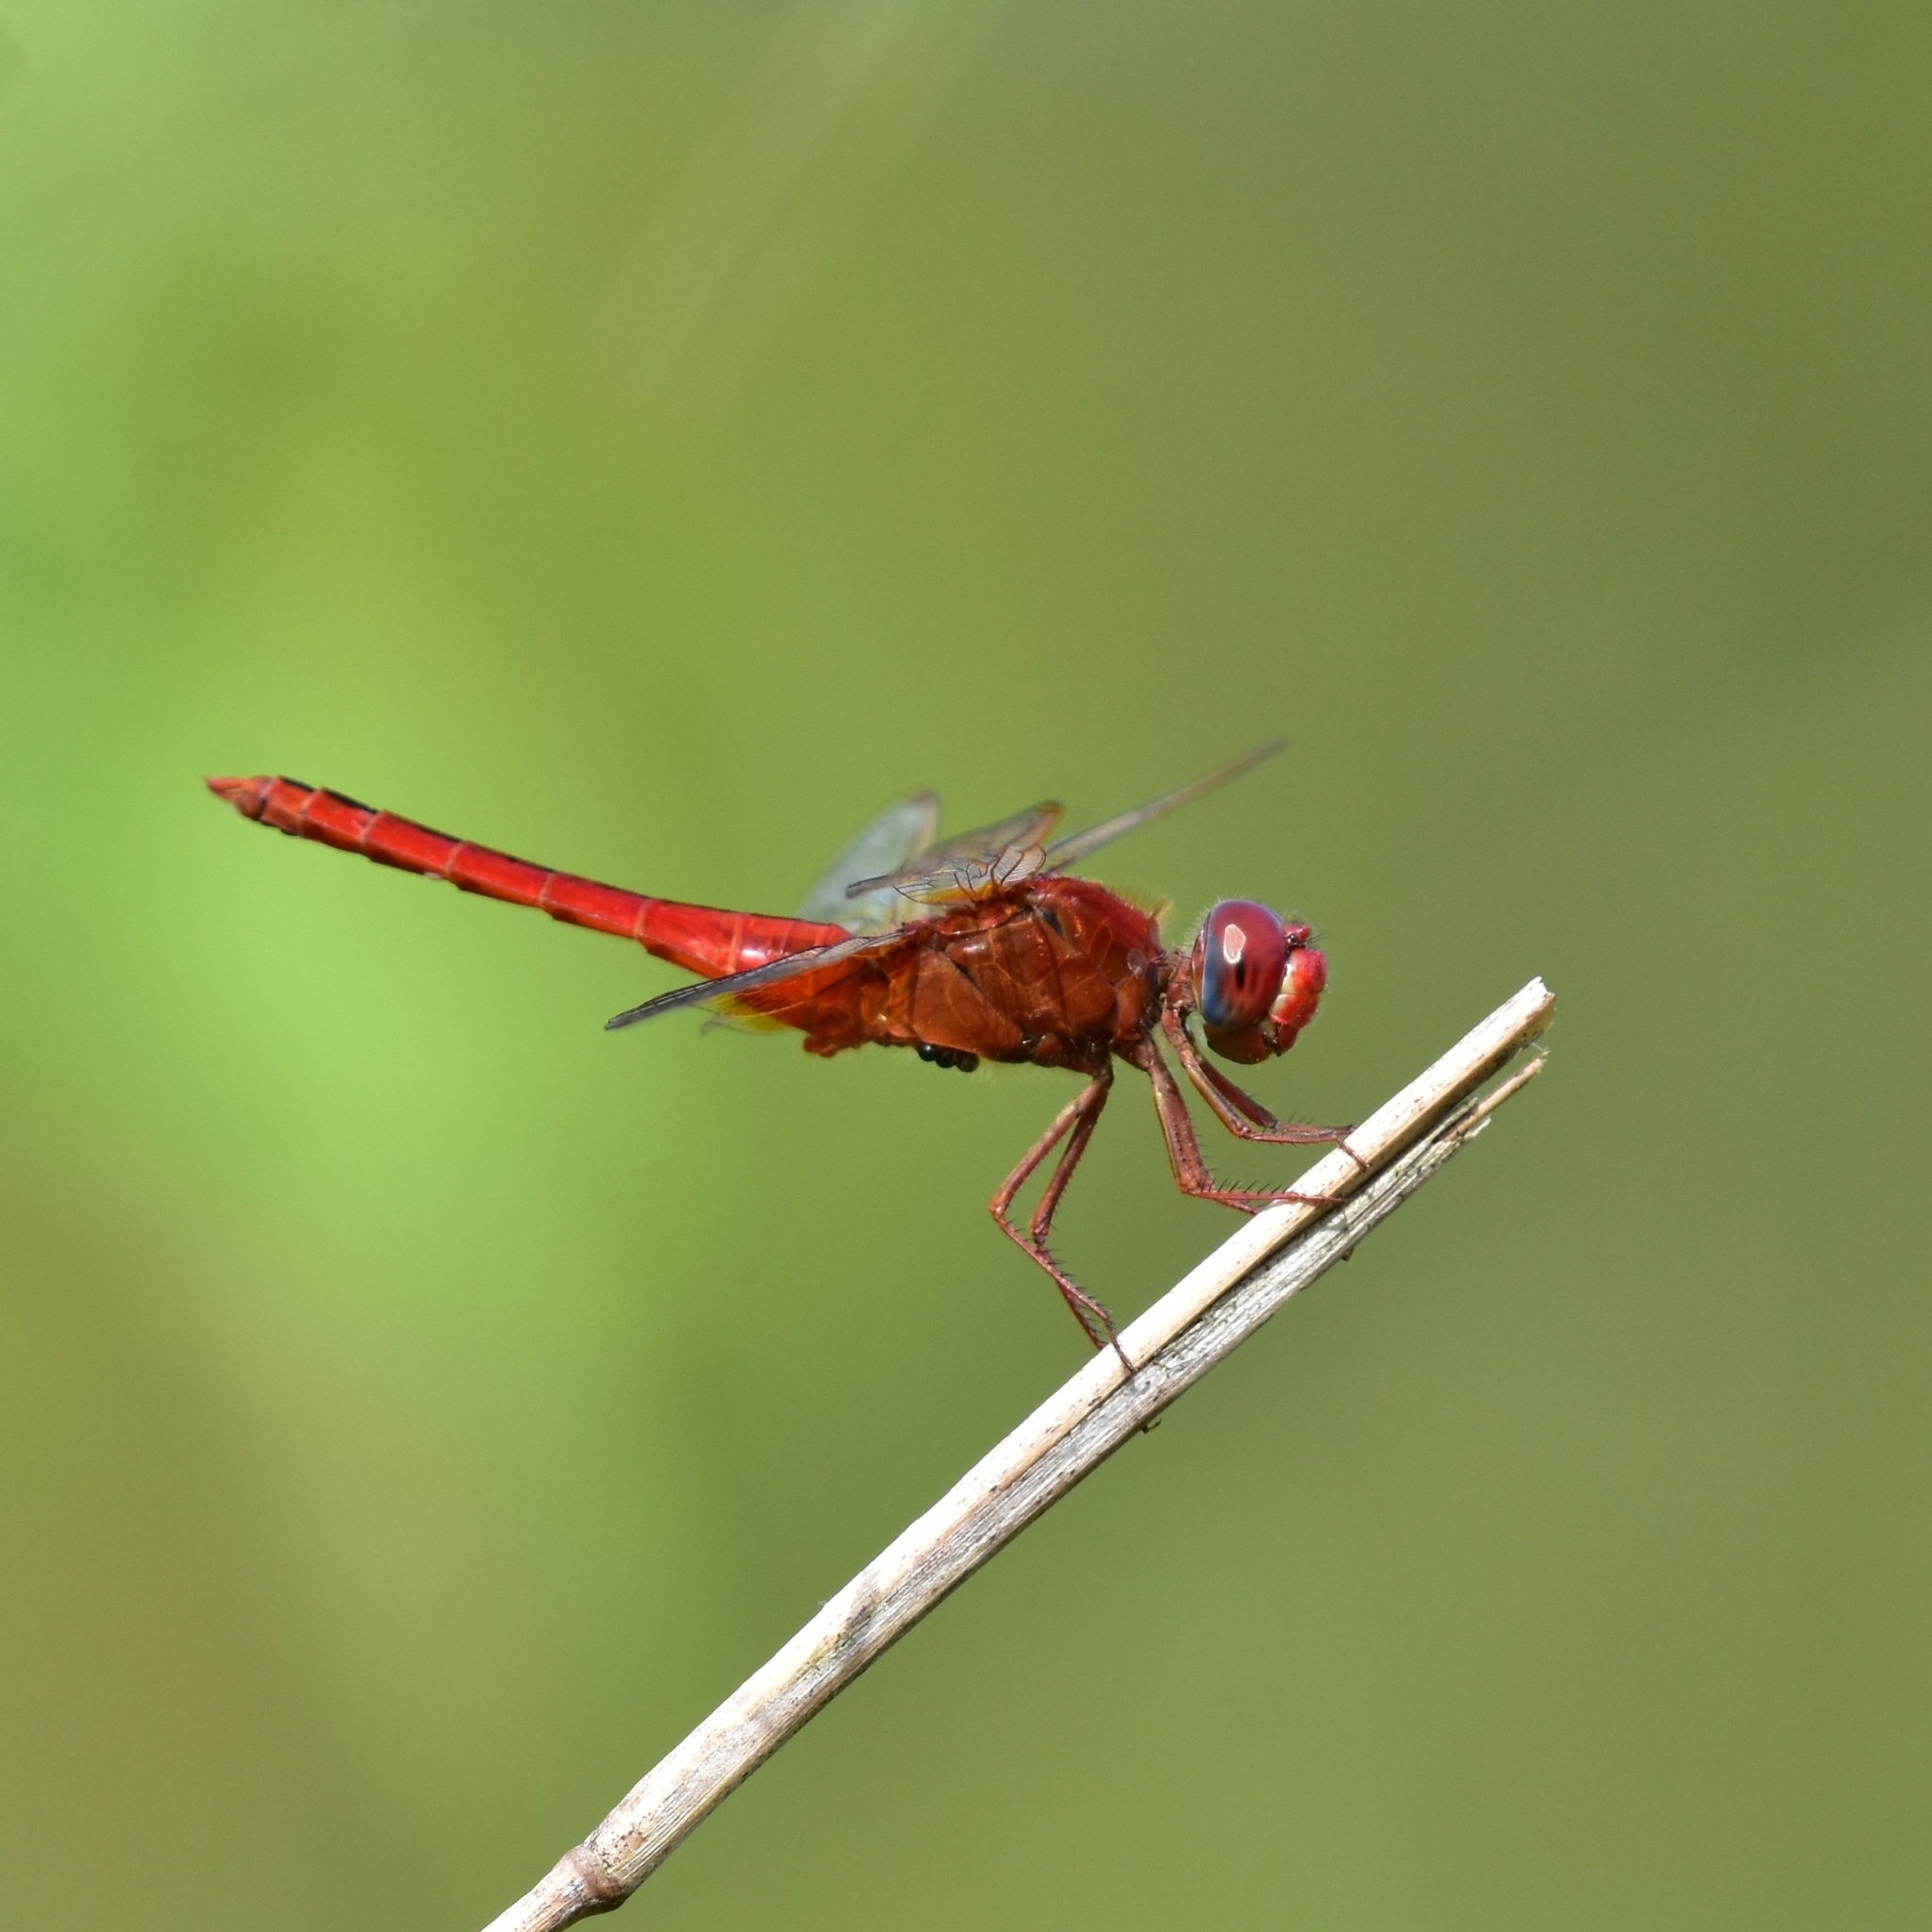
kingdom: Animalia
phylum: Arthropoda
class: Insecta
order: Odonata
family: Libellulidae
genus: Crocothemis
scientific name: Crocothemis servilia
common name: Scarlet skimmer
